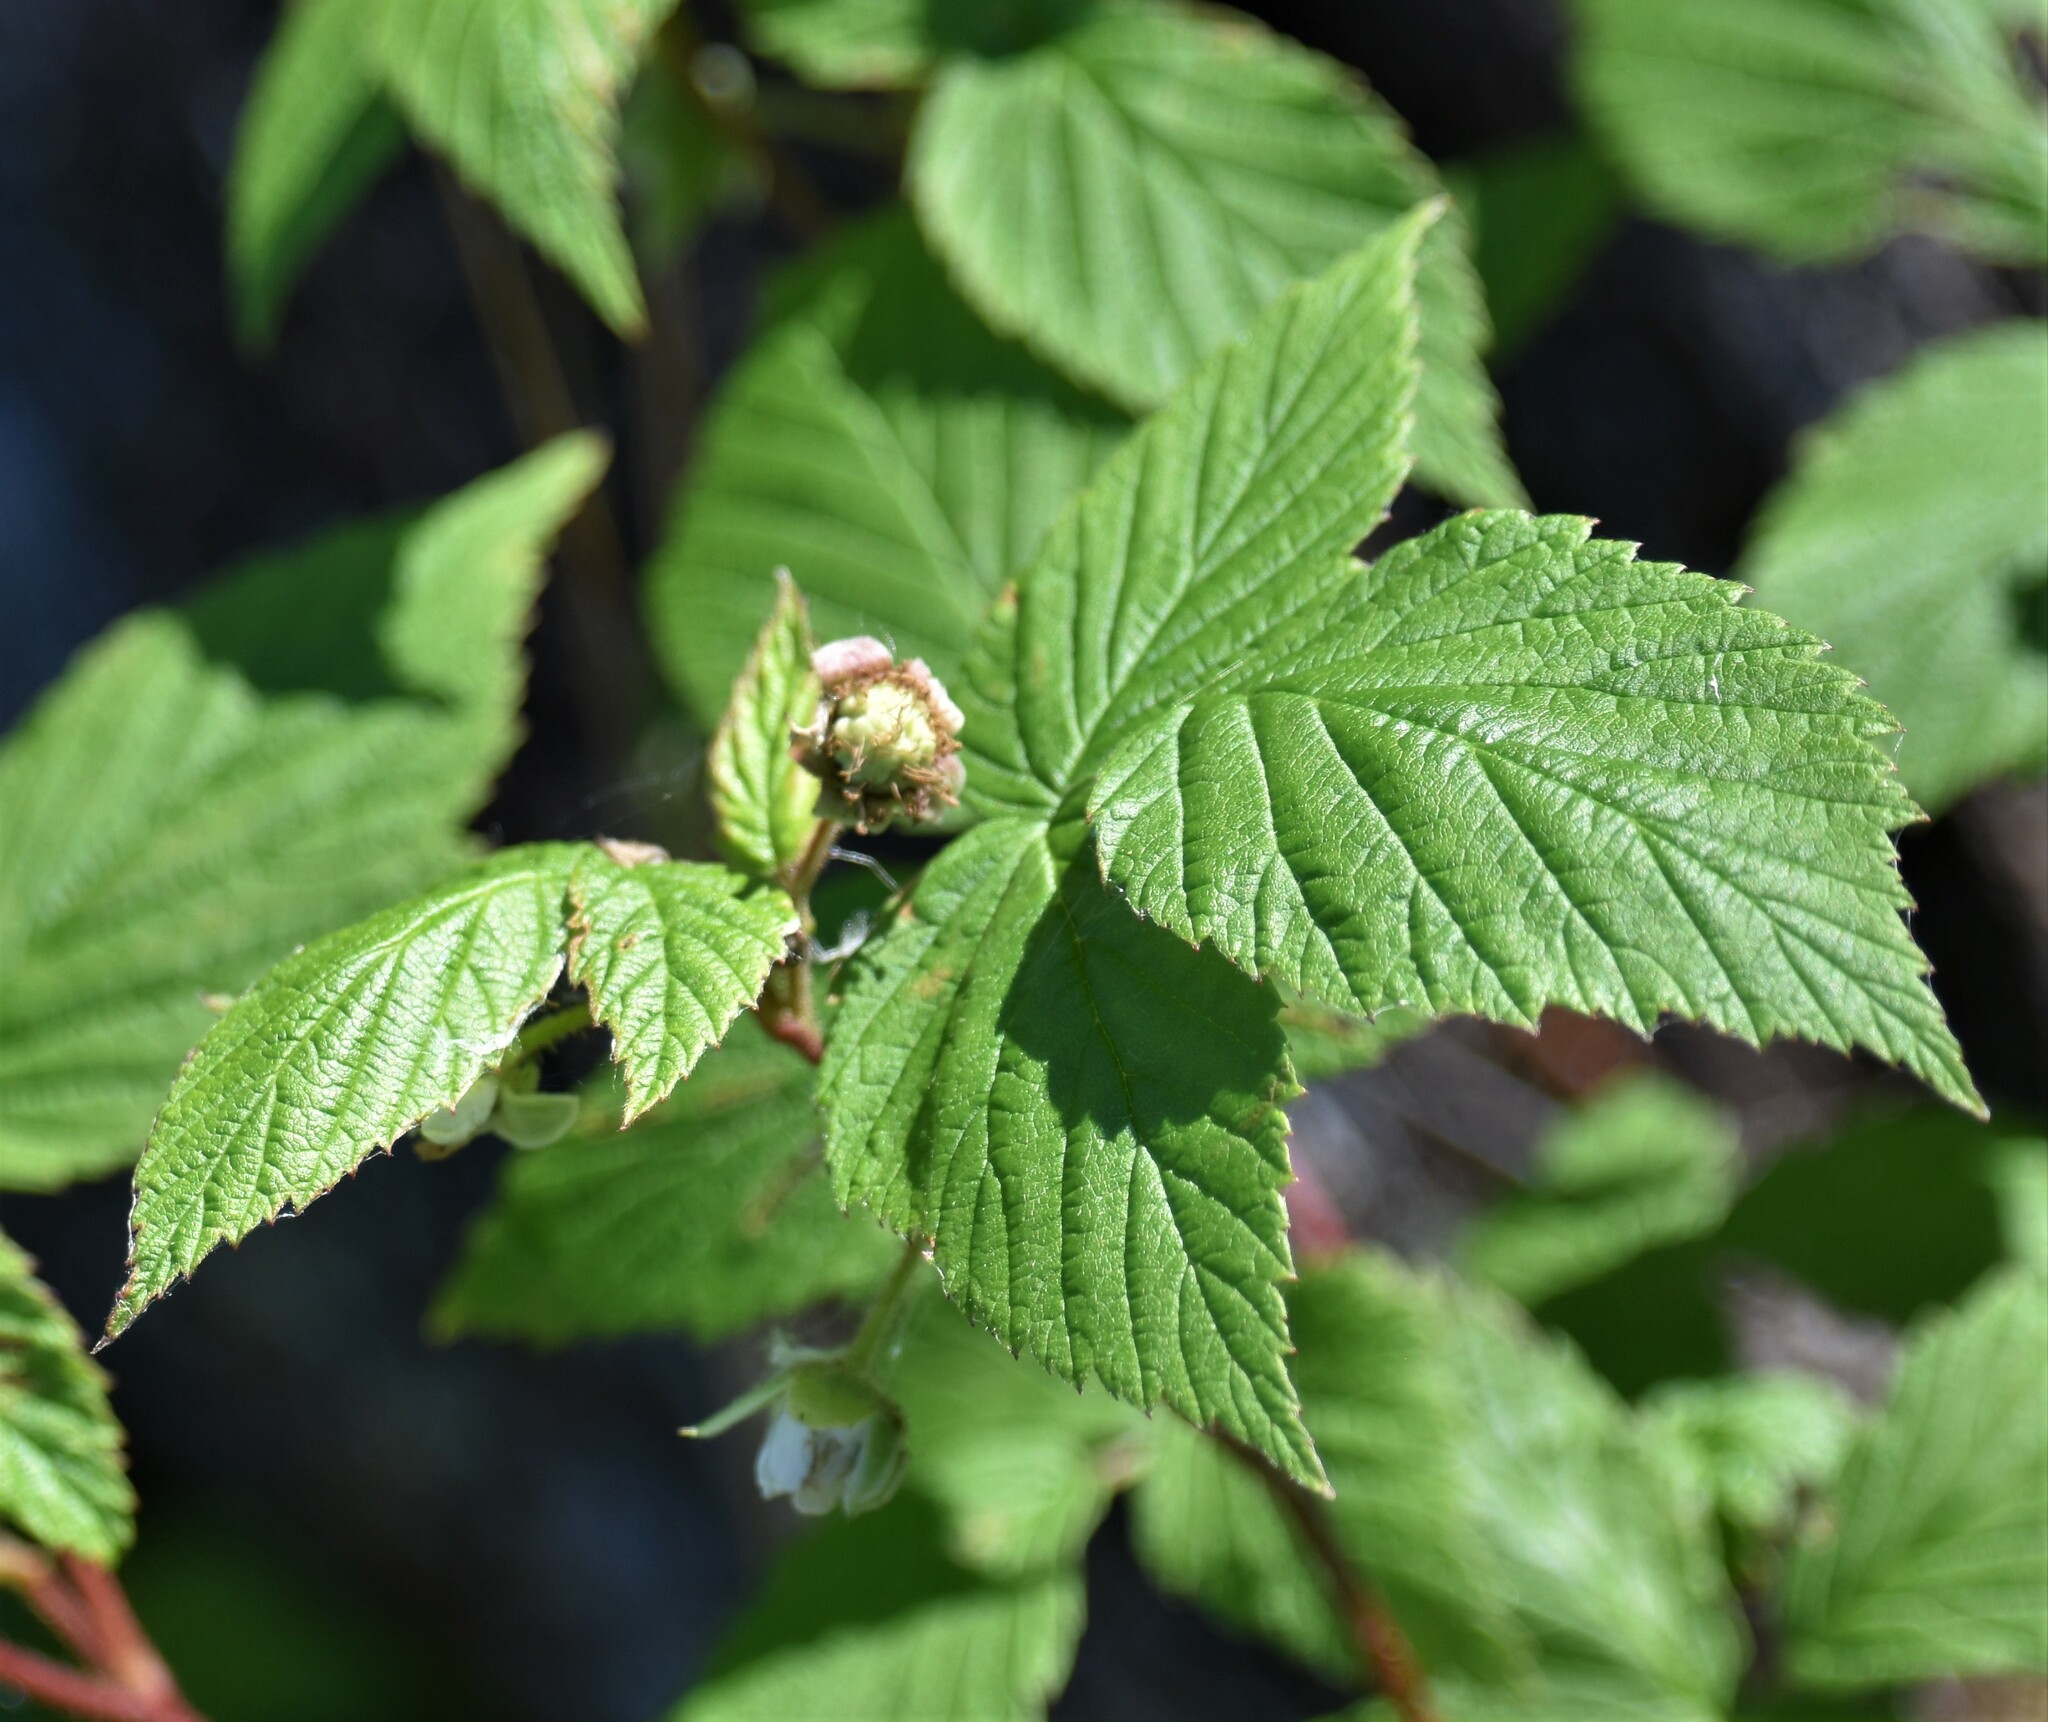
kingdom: Plantae
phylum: Tracheophyta
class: Magnoliopsida
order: Rosales
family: Rosaceae
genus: Rubus
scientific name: Rubus idaeus
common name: Raspberry
